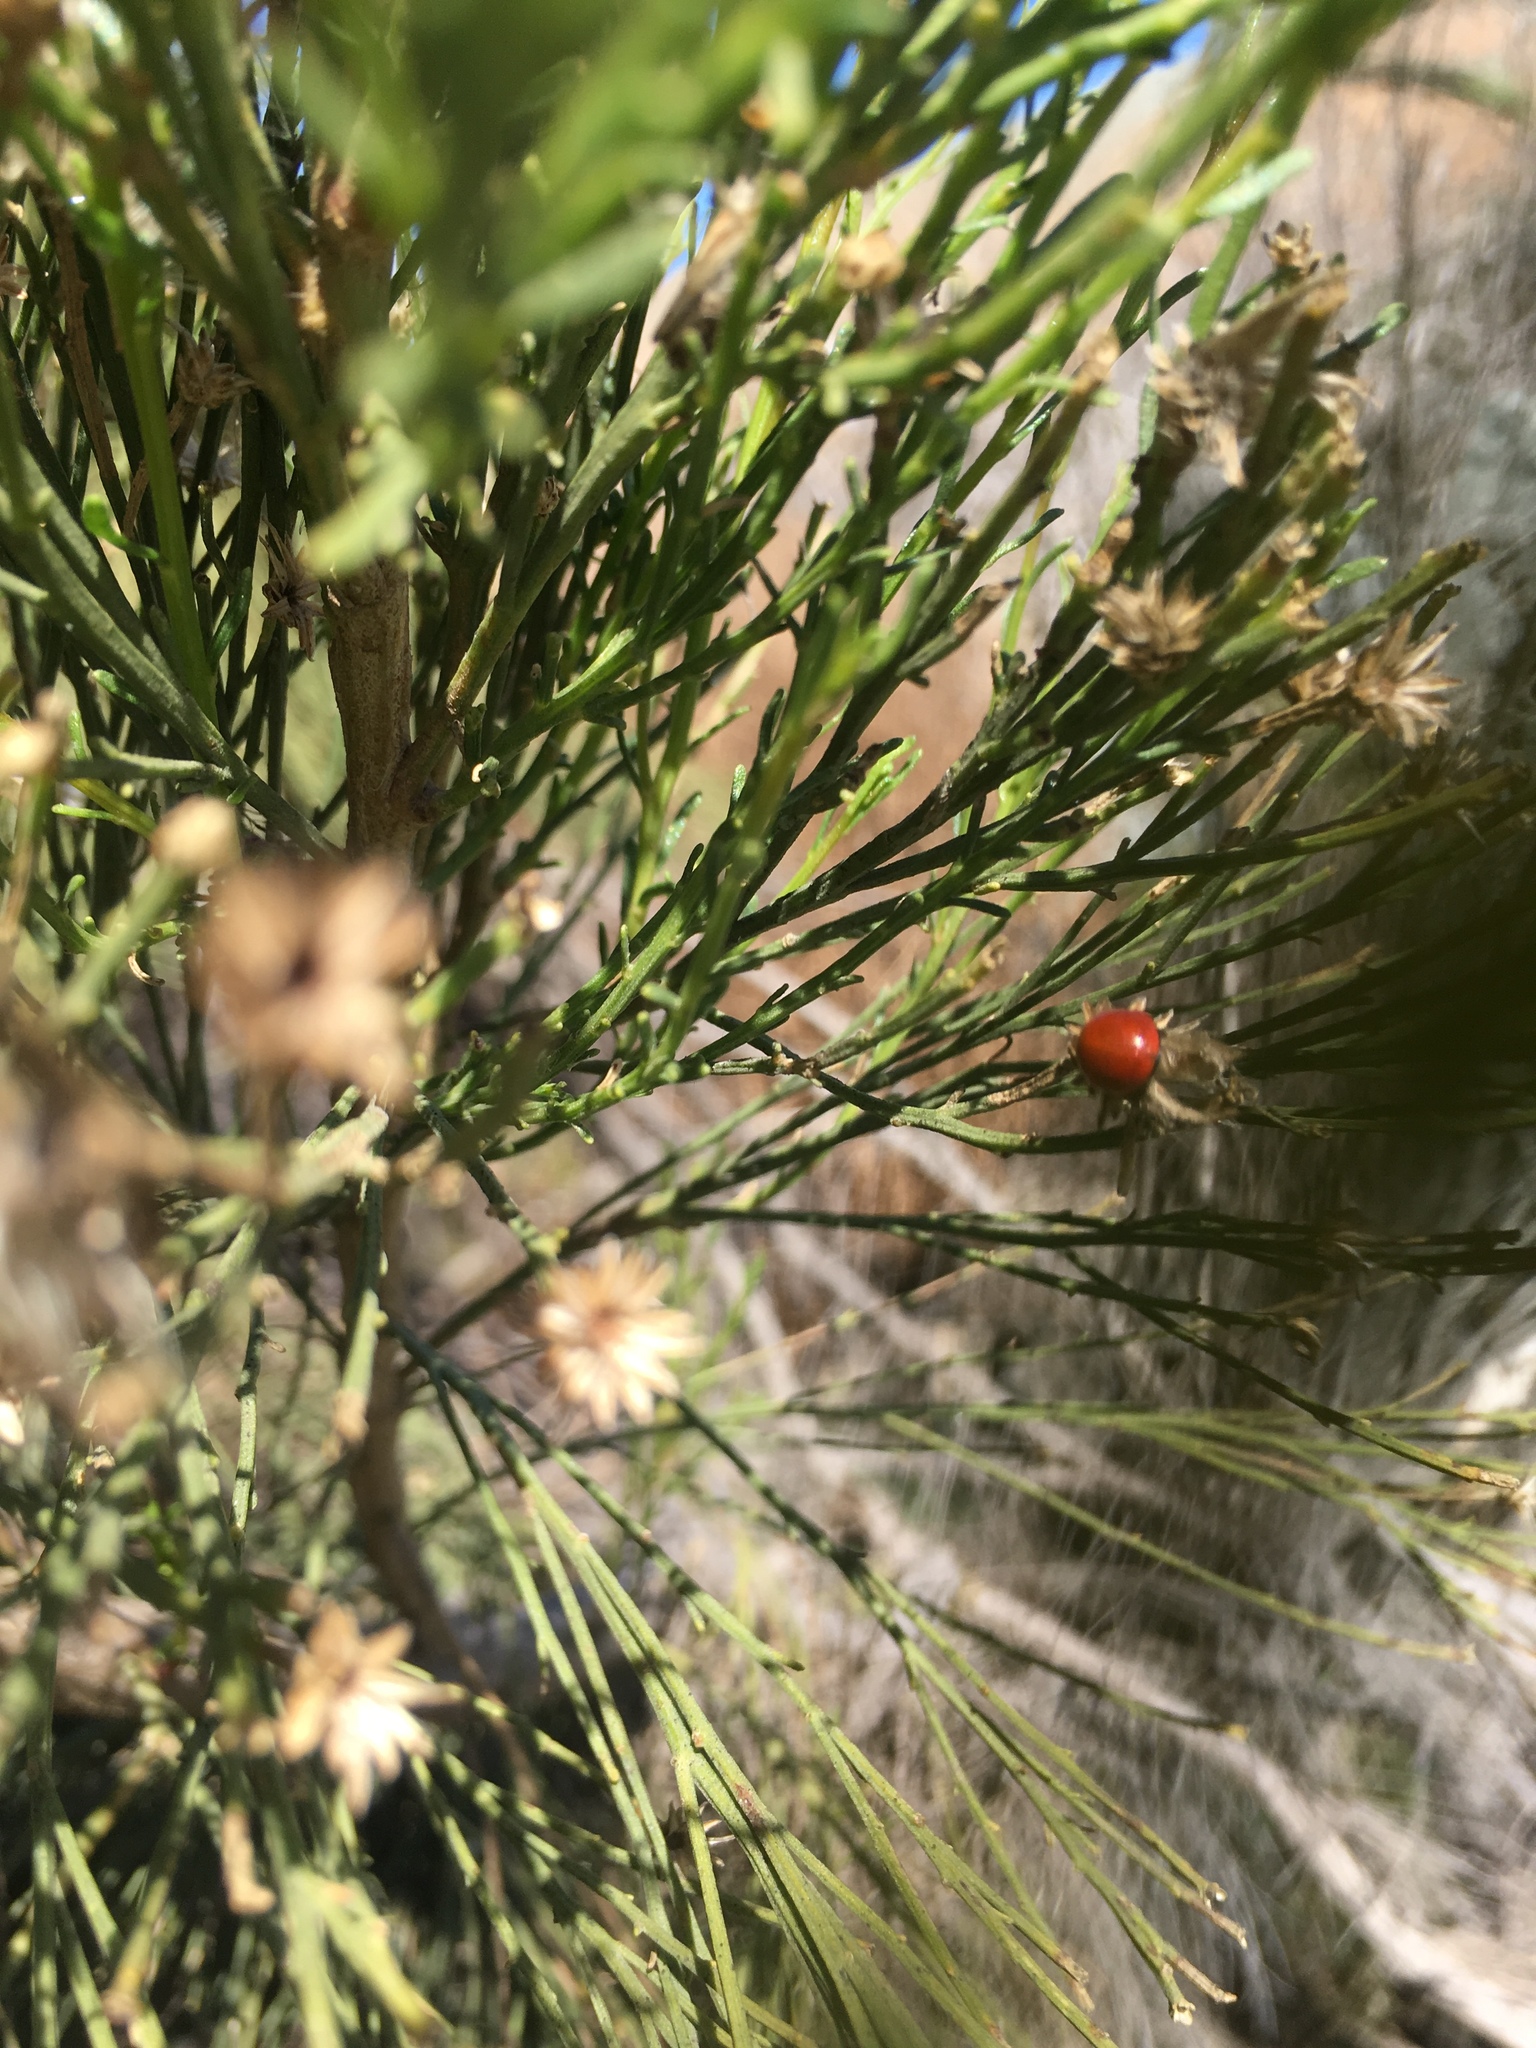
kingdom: Animalia
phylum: Arthropoda
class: Insecta
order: Coleoptera
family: Coccinellidae
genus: Cycloneda
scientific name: Cycloneda
